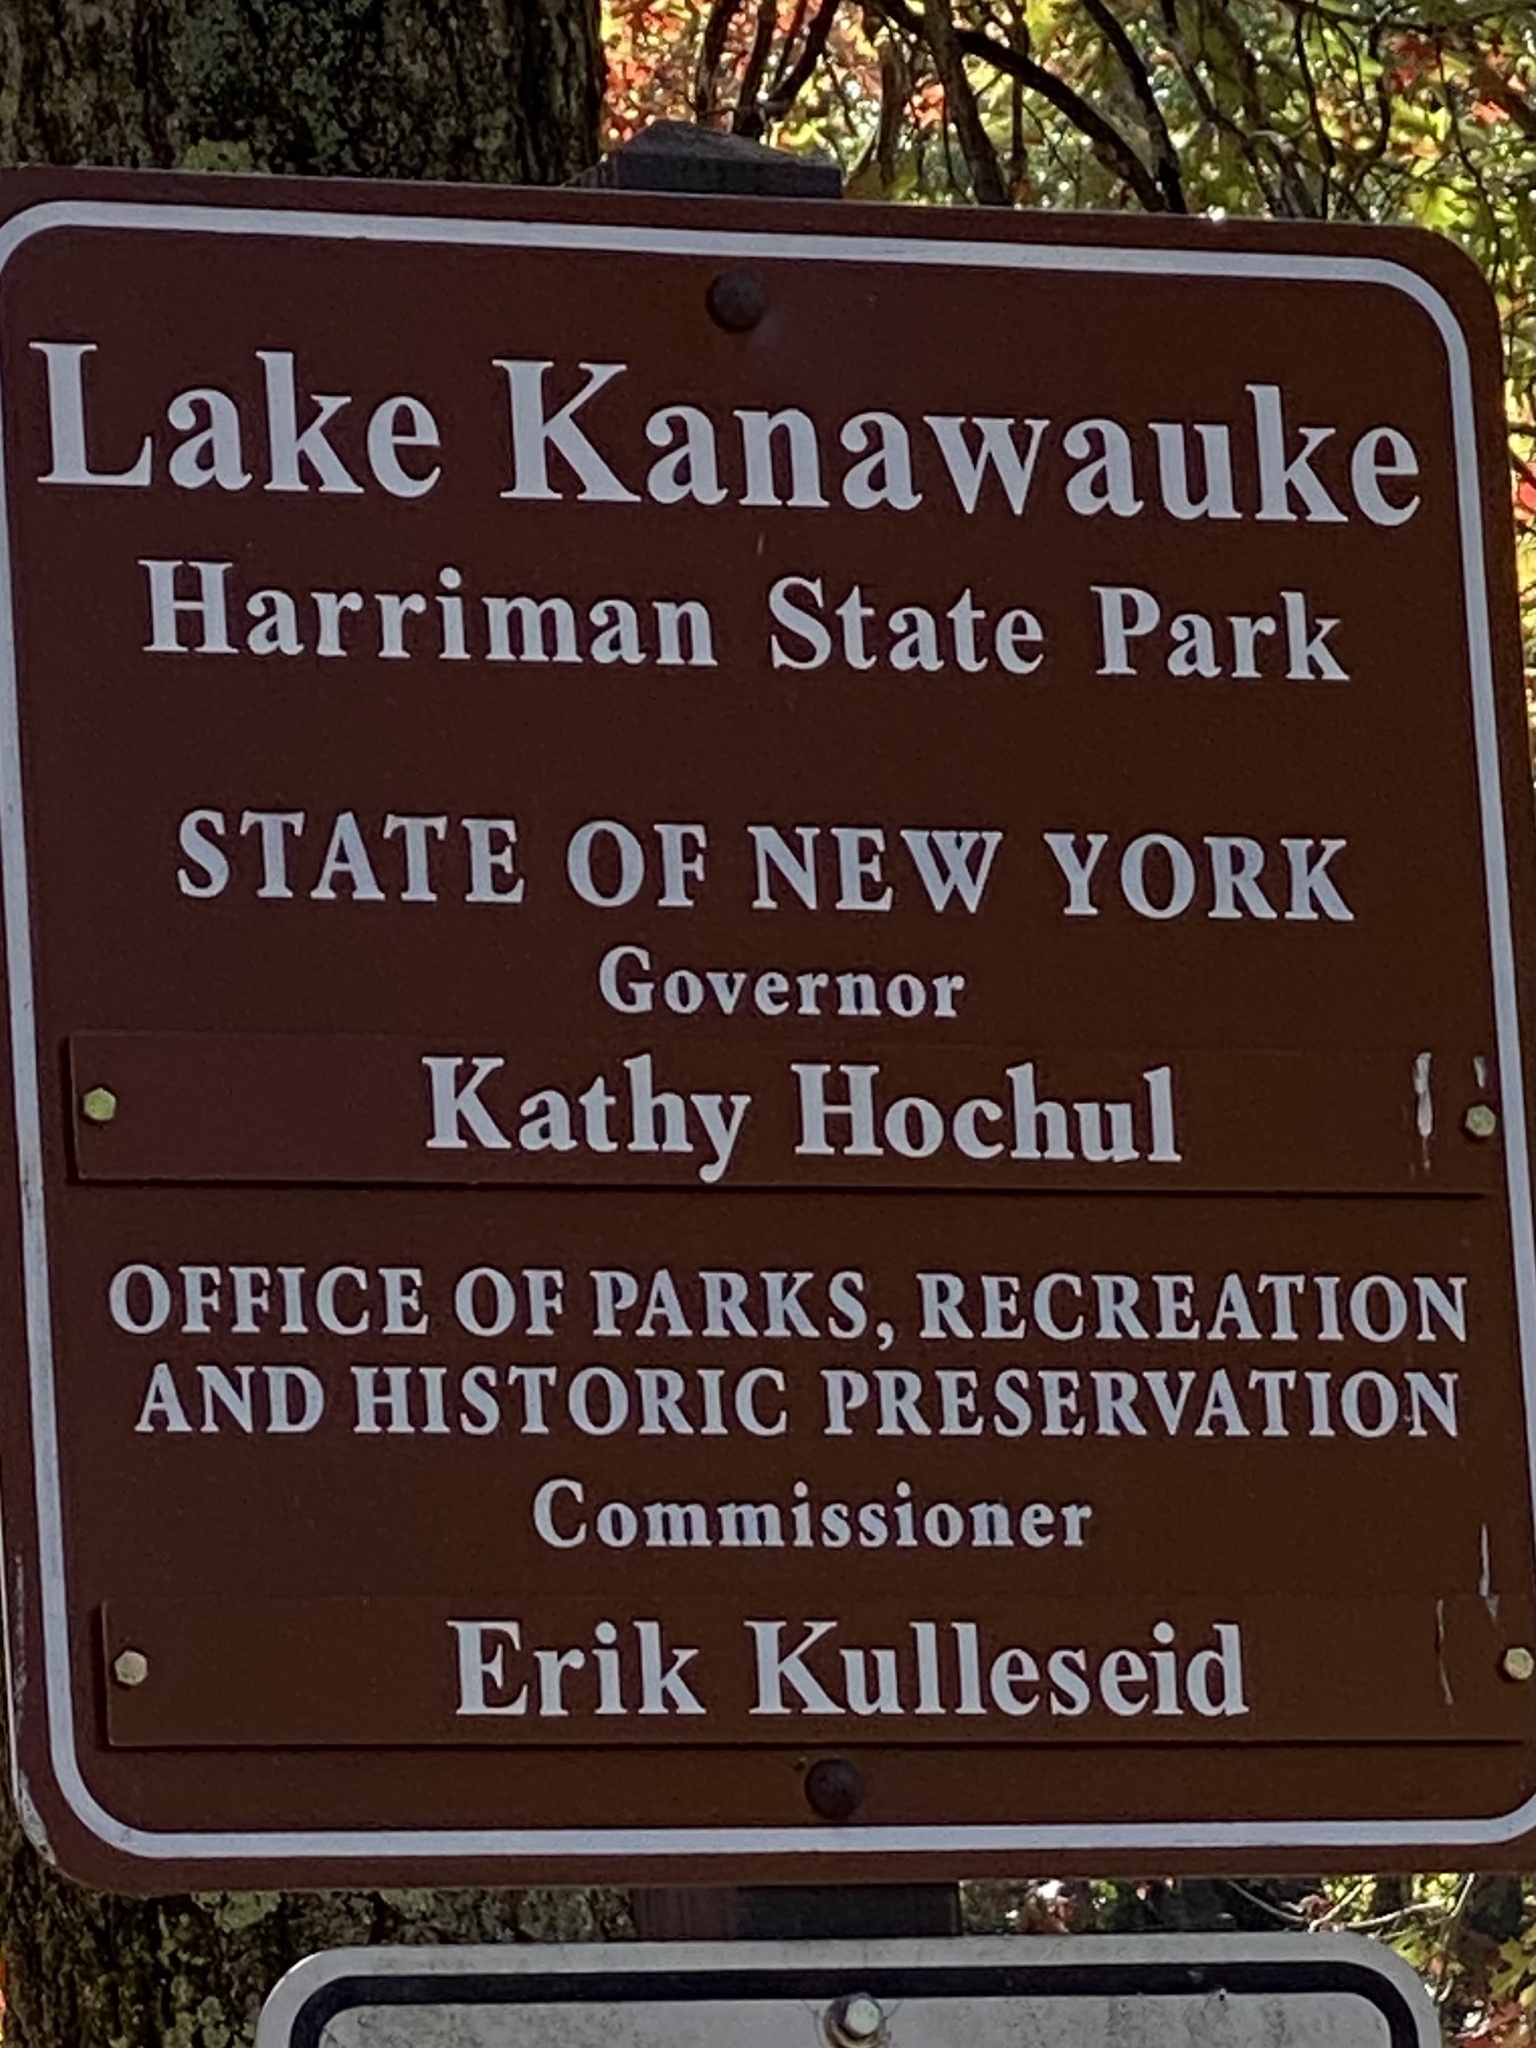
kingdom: Plantae
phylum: Tracheophyta
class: Magnoliopsida
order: Asterales
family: Asteraceae
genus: Symphyotrichum
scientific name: Symphyotrichum cordifolium
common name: Beeweed
